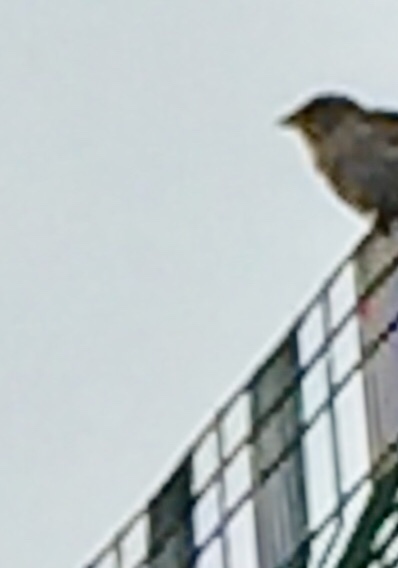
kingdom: Animalia
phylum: Chordata
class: Aves
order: Passeriformes
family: Passeridae
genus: Passer
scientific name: Passer domesticus
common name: House sparrow
